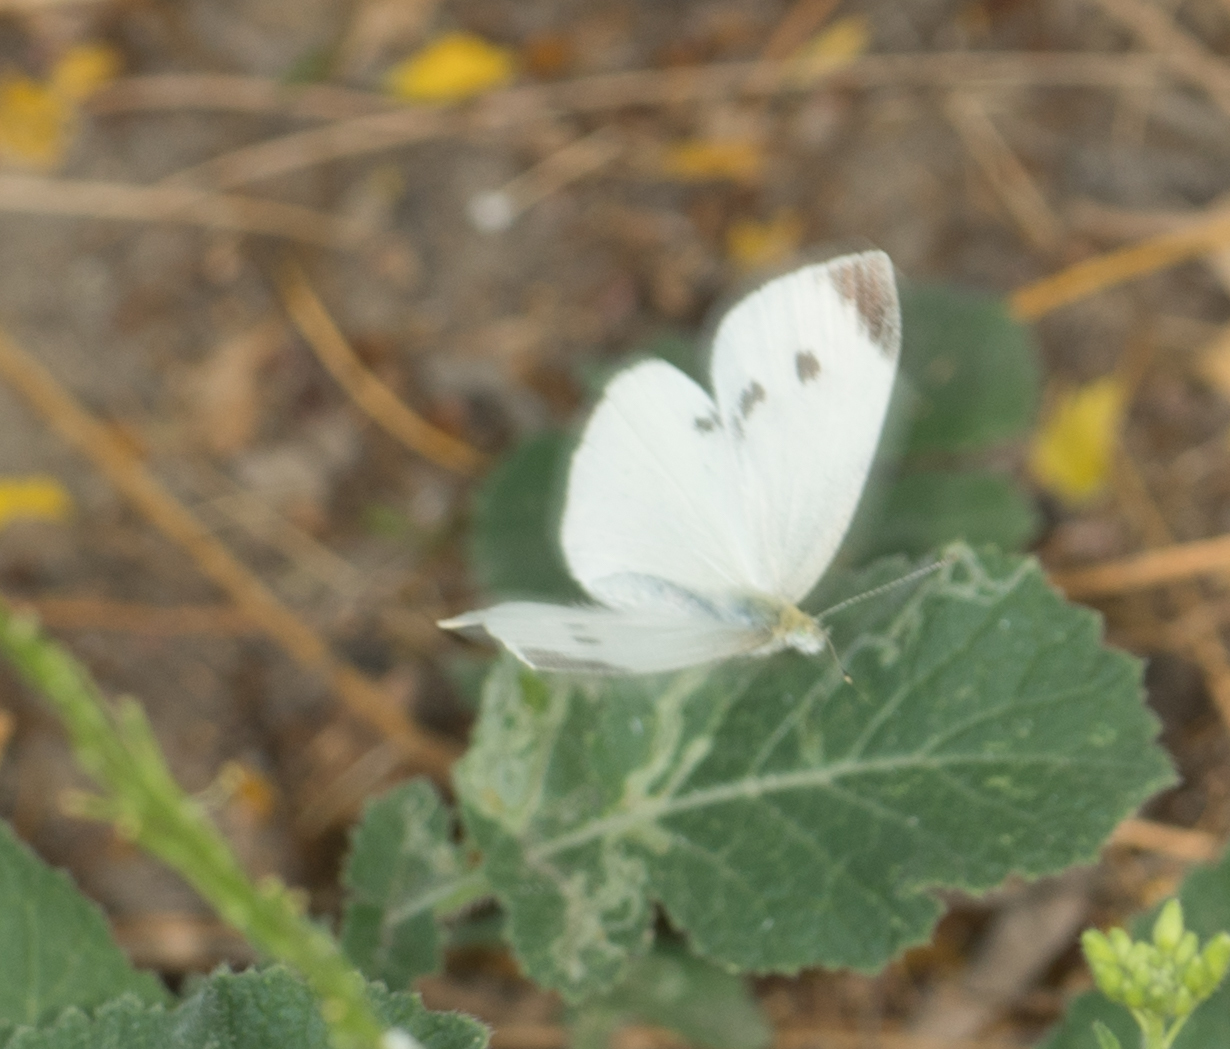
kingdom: Animalia
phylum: Arthropoda
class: Insecta
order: Lepidoptera
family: Pieridae
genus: Pieris
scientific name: Pieris rapae
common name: Small white
